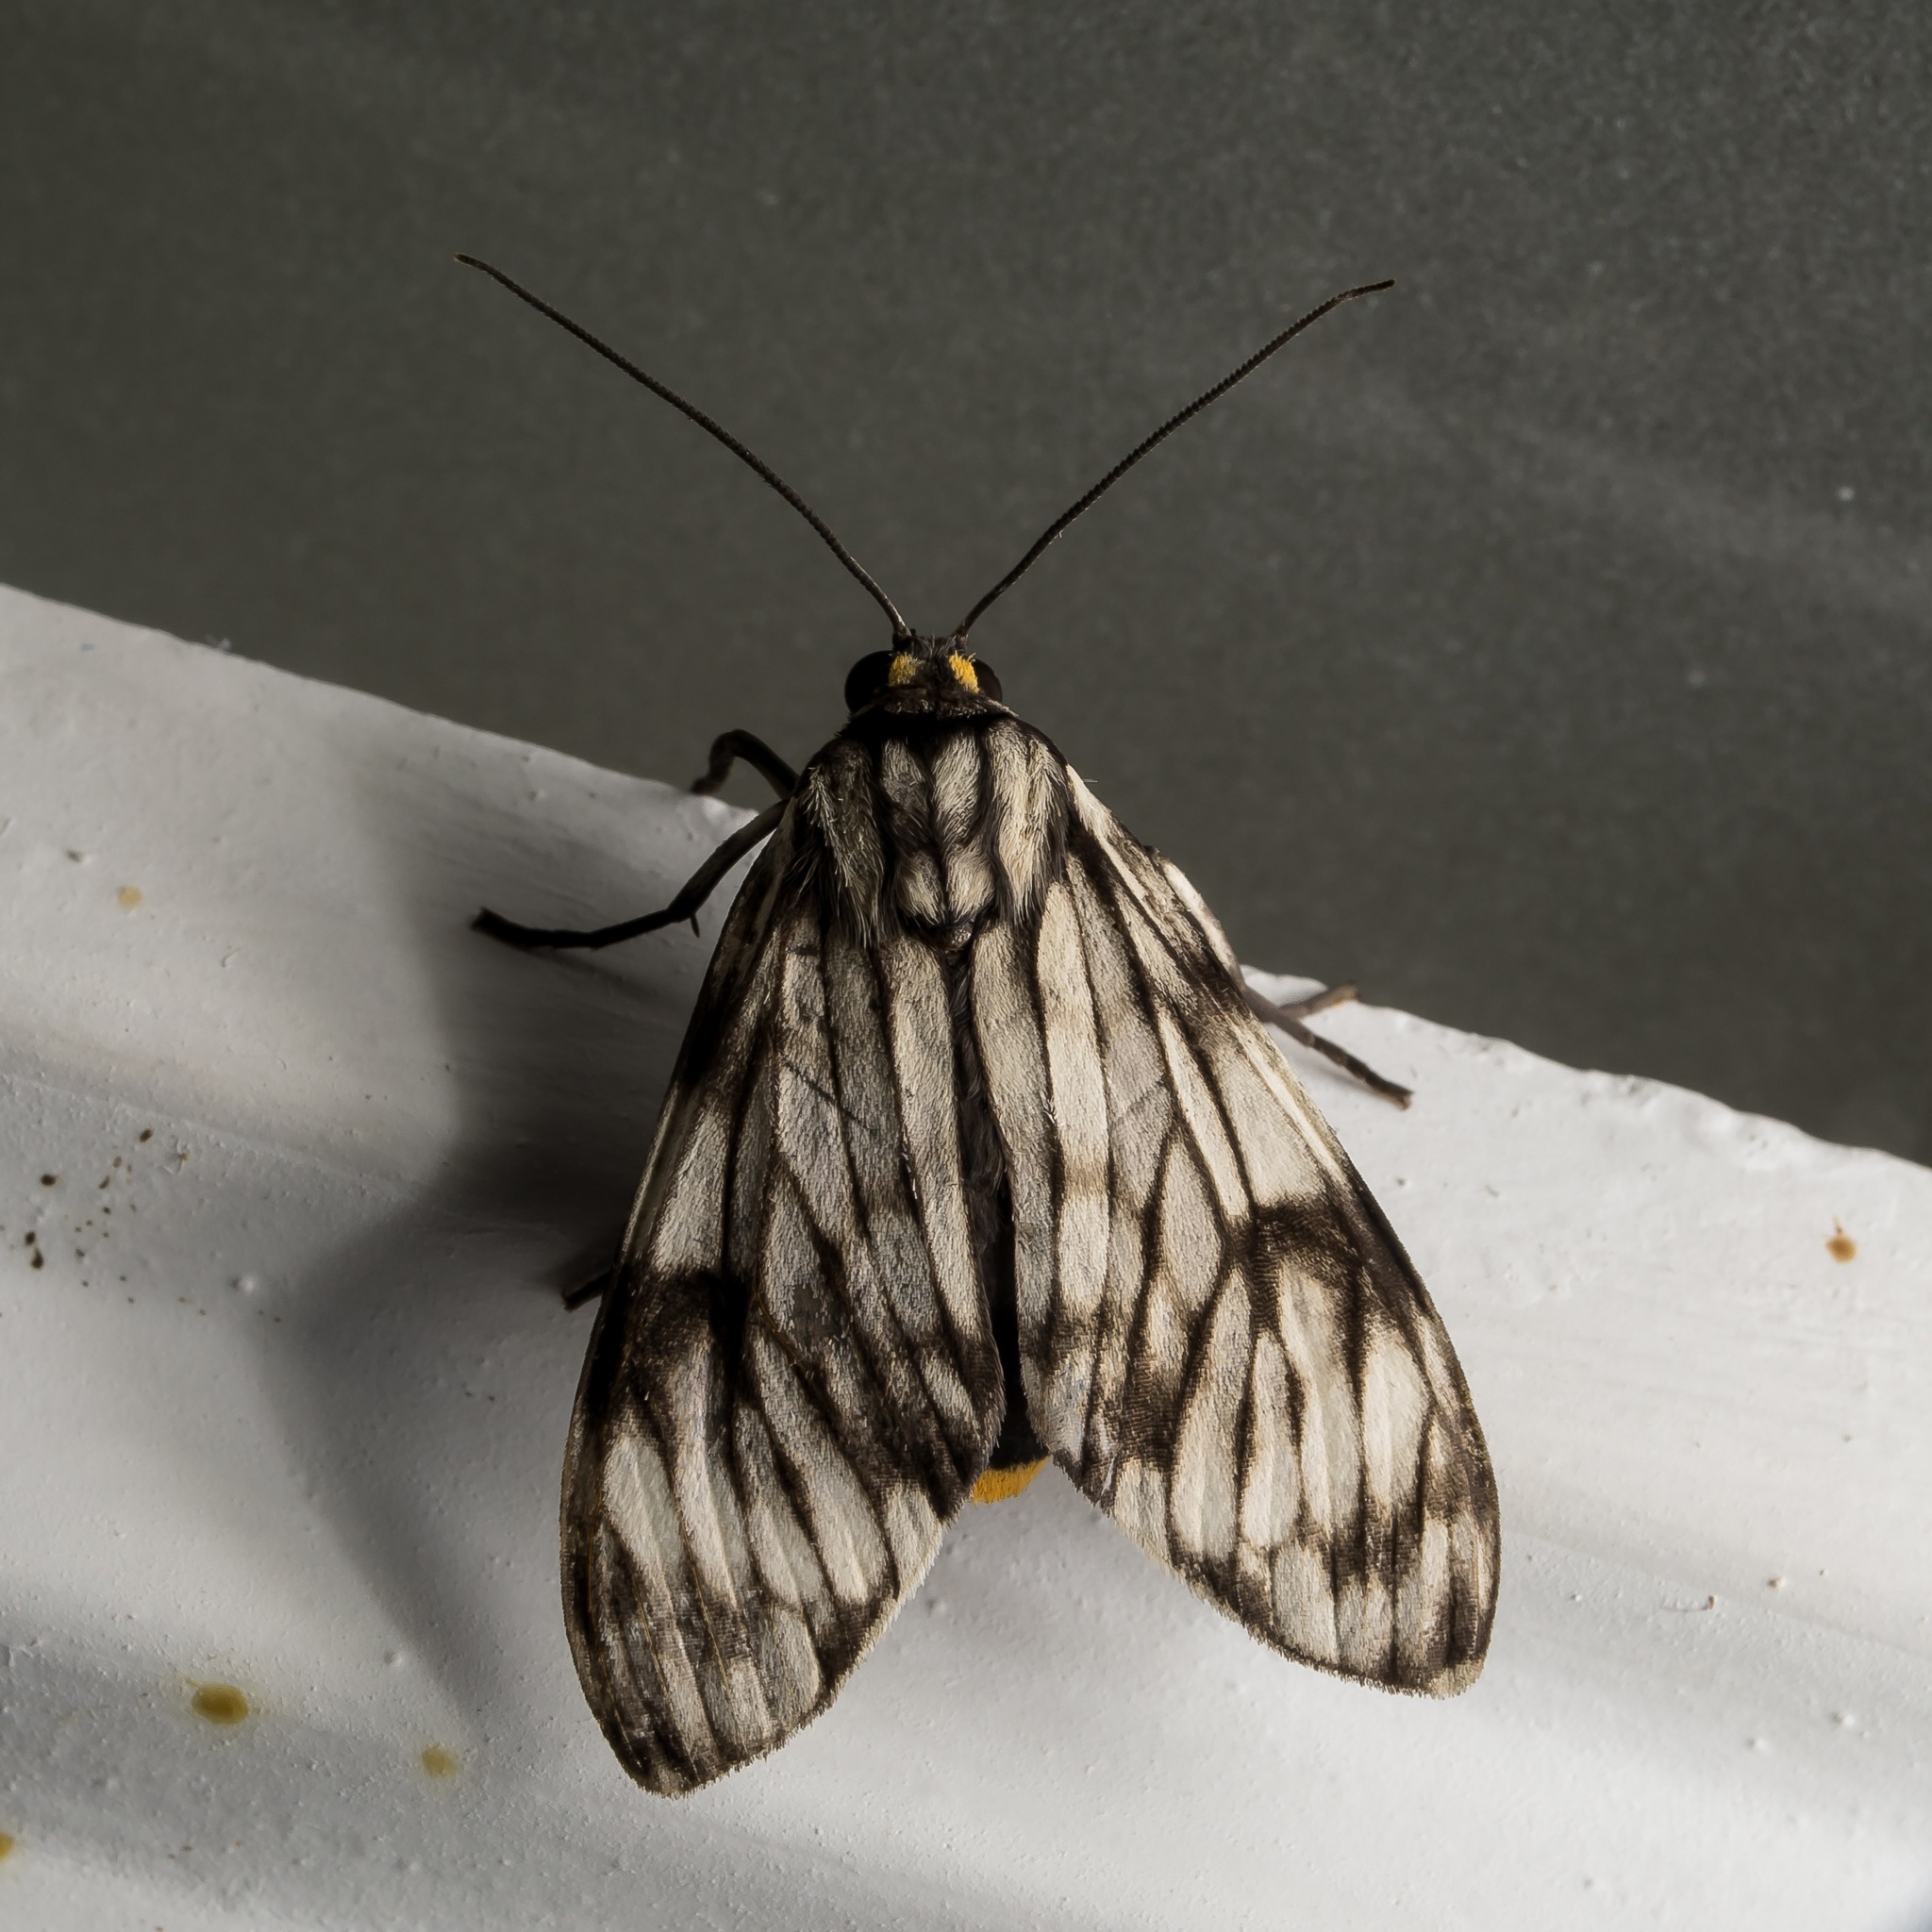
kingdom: Animalia
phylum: Arthropoda
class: Insecta
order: Lepidoptera
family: Erebidae
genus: Theages
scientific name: Theages xantura
